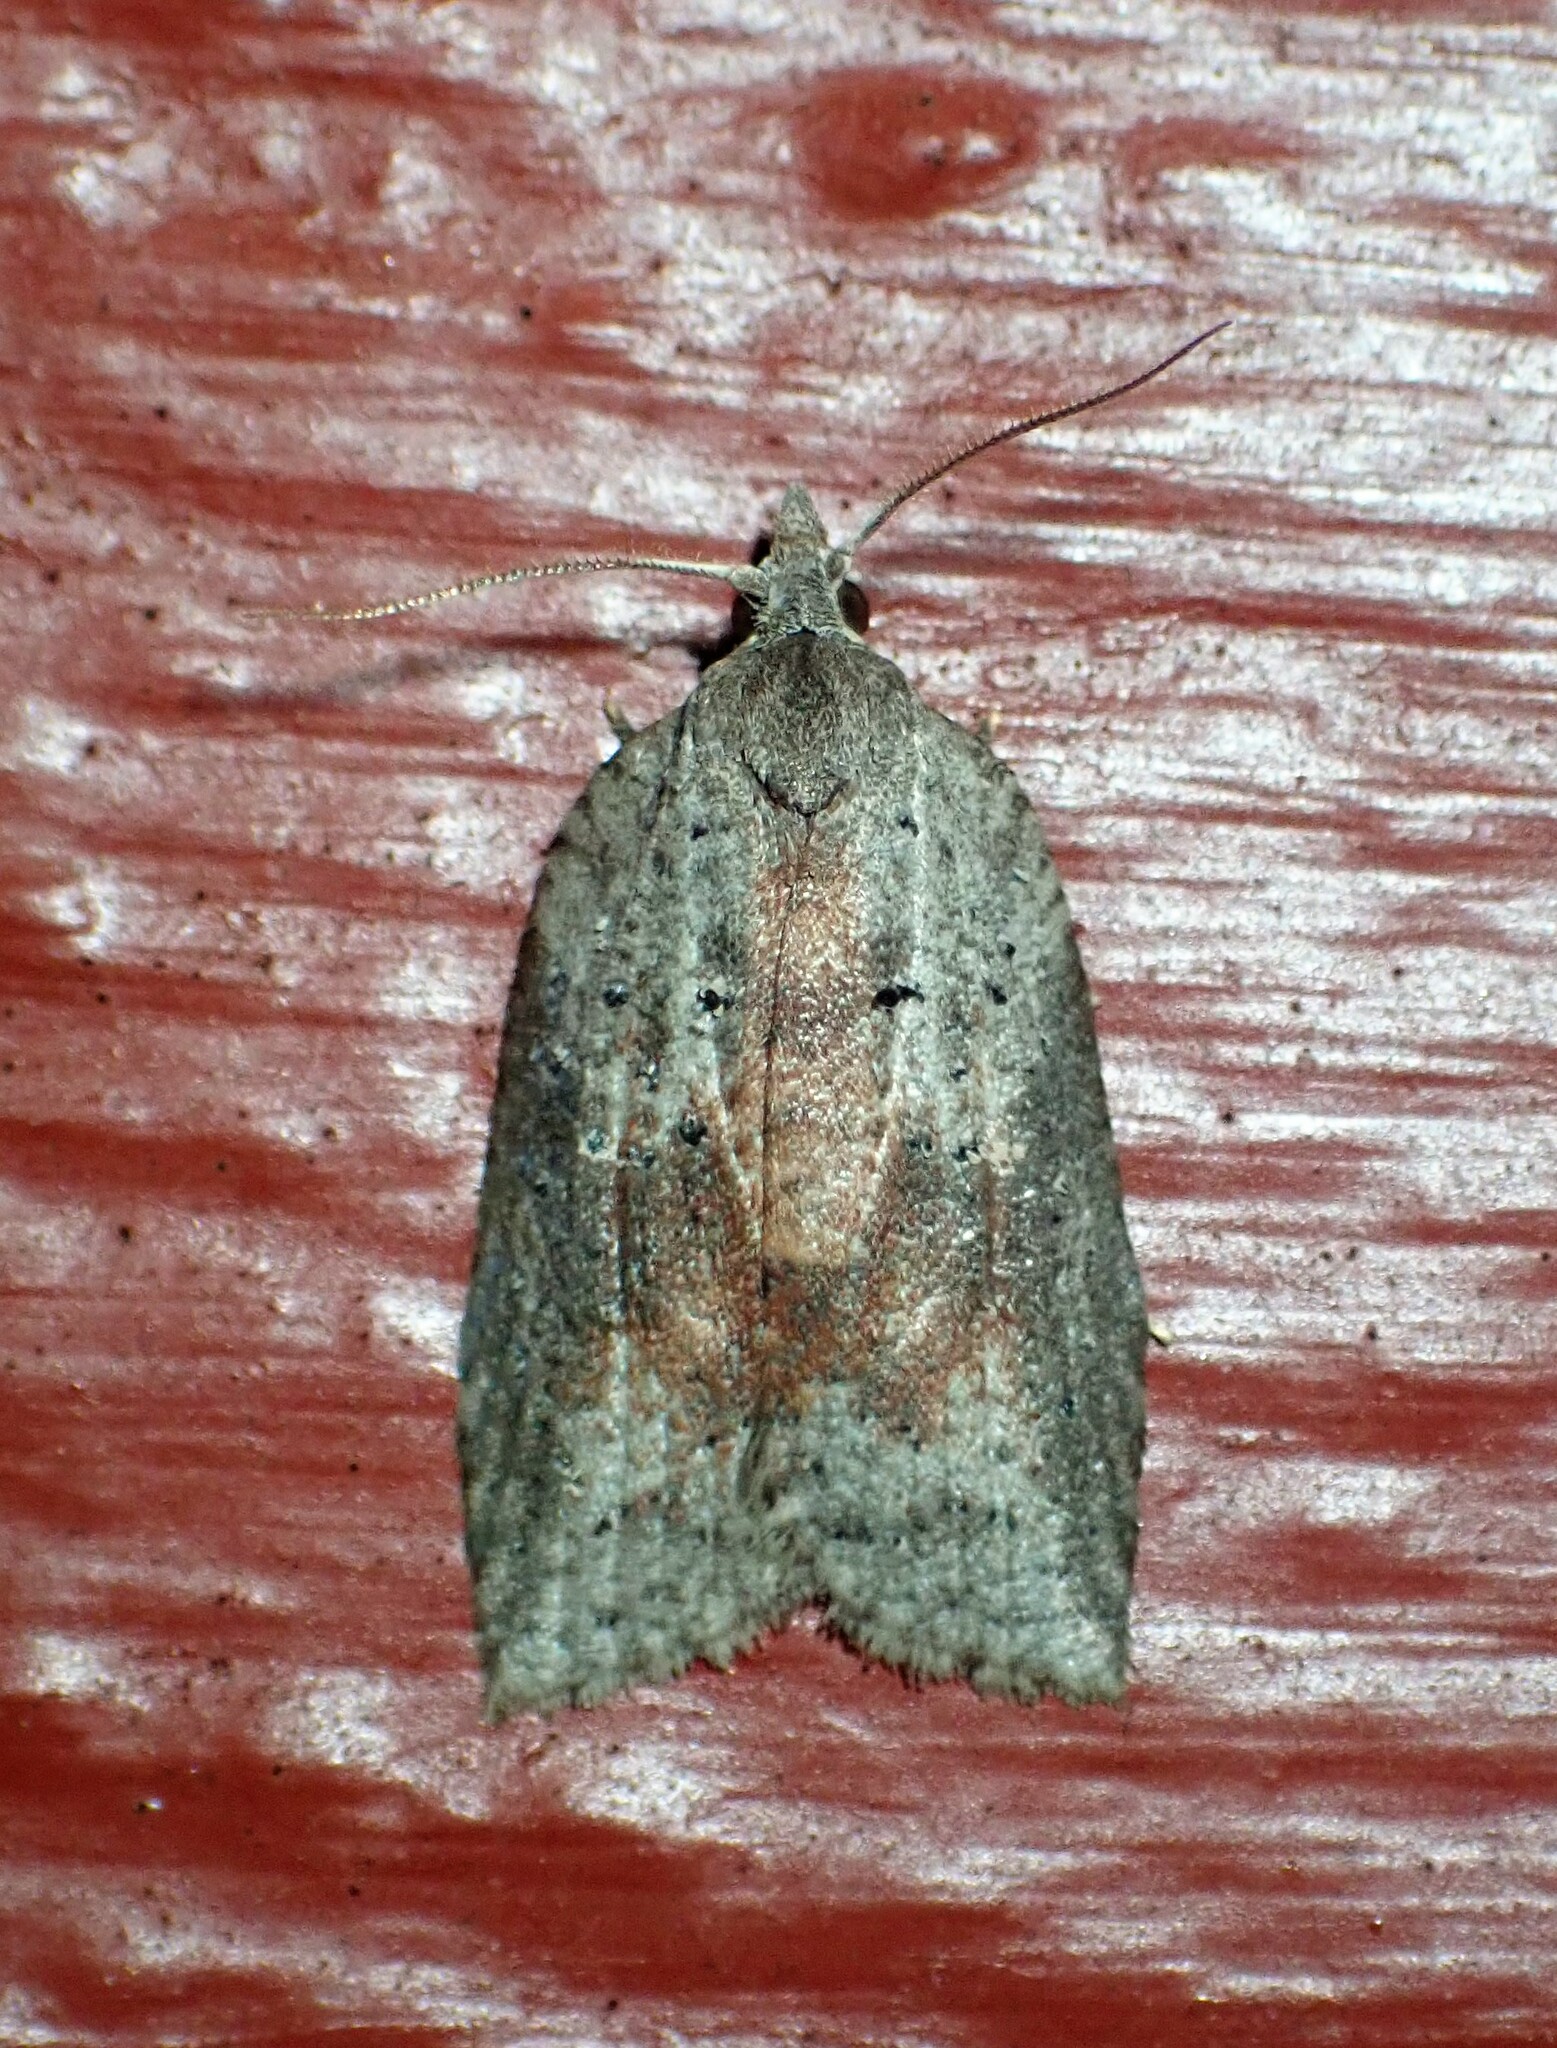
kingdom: Animalia
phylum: Arthropoda
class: Insecta
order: Lepidoptera
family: Tortricidae
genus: Amorbia
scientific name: Amorbia humerosana
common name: White-lined leafroller moth
